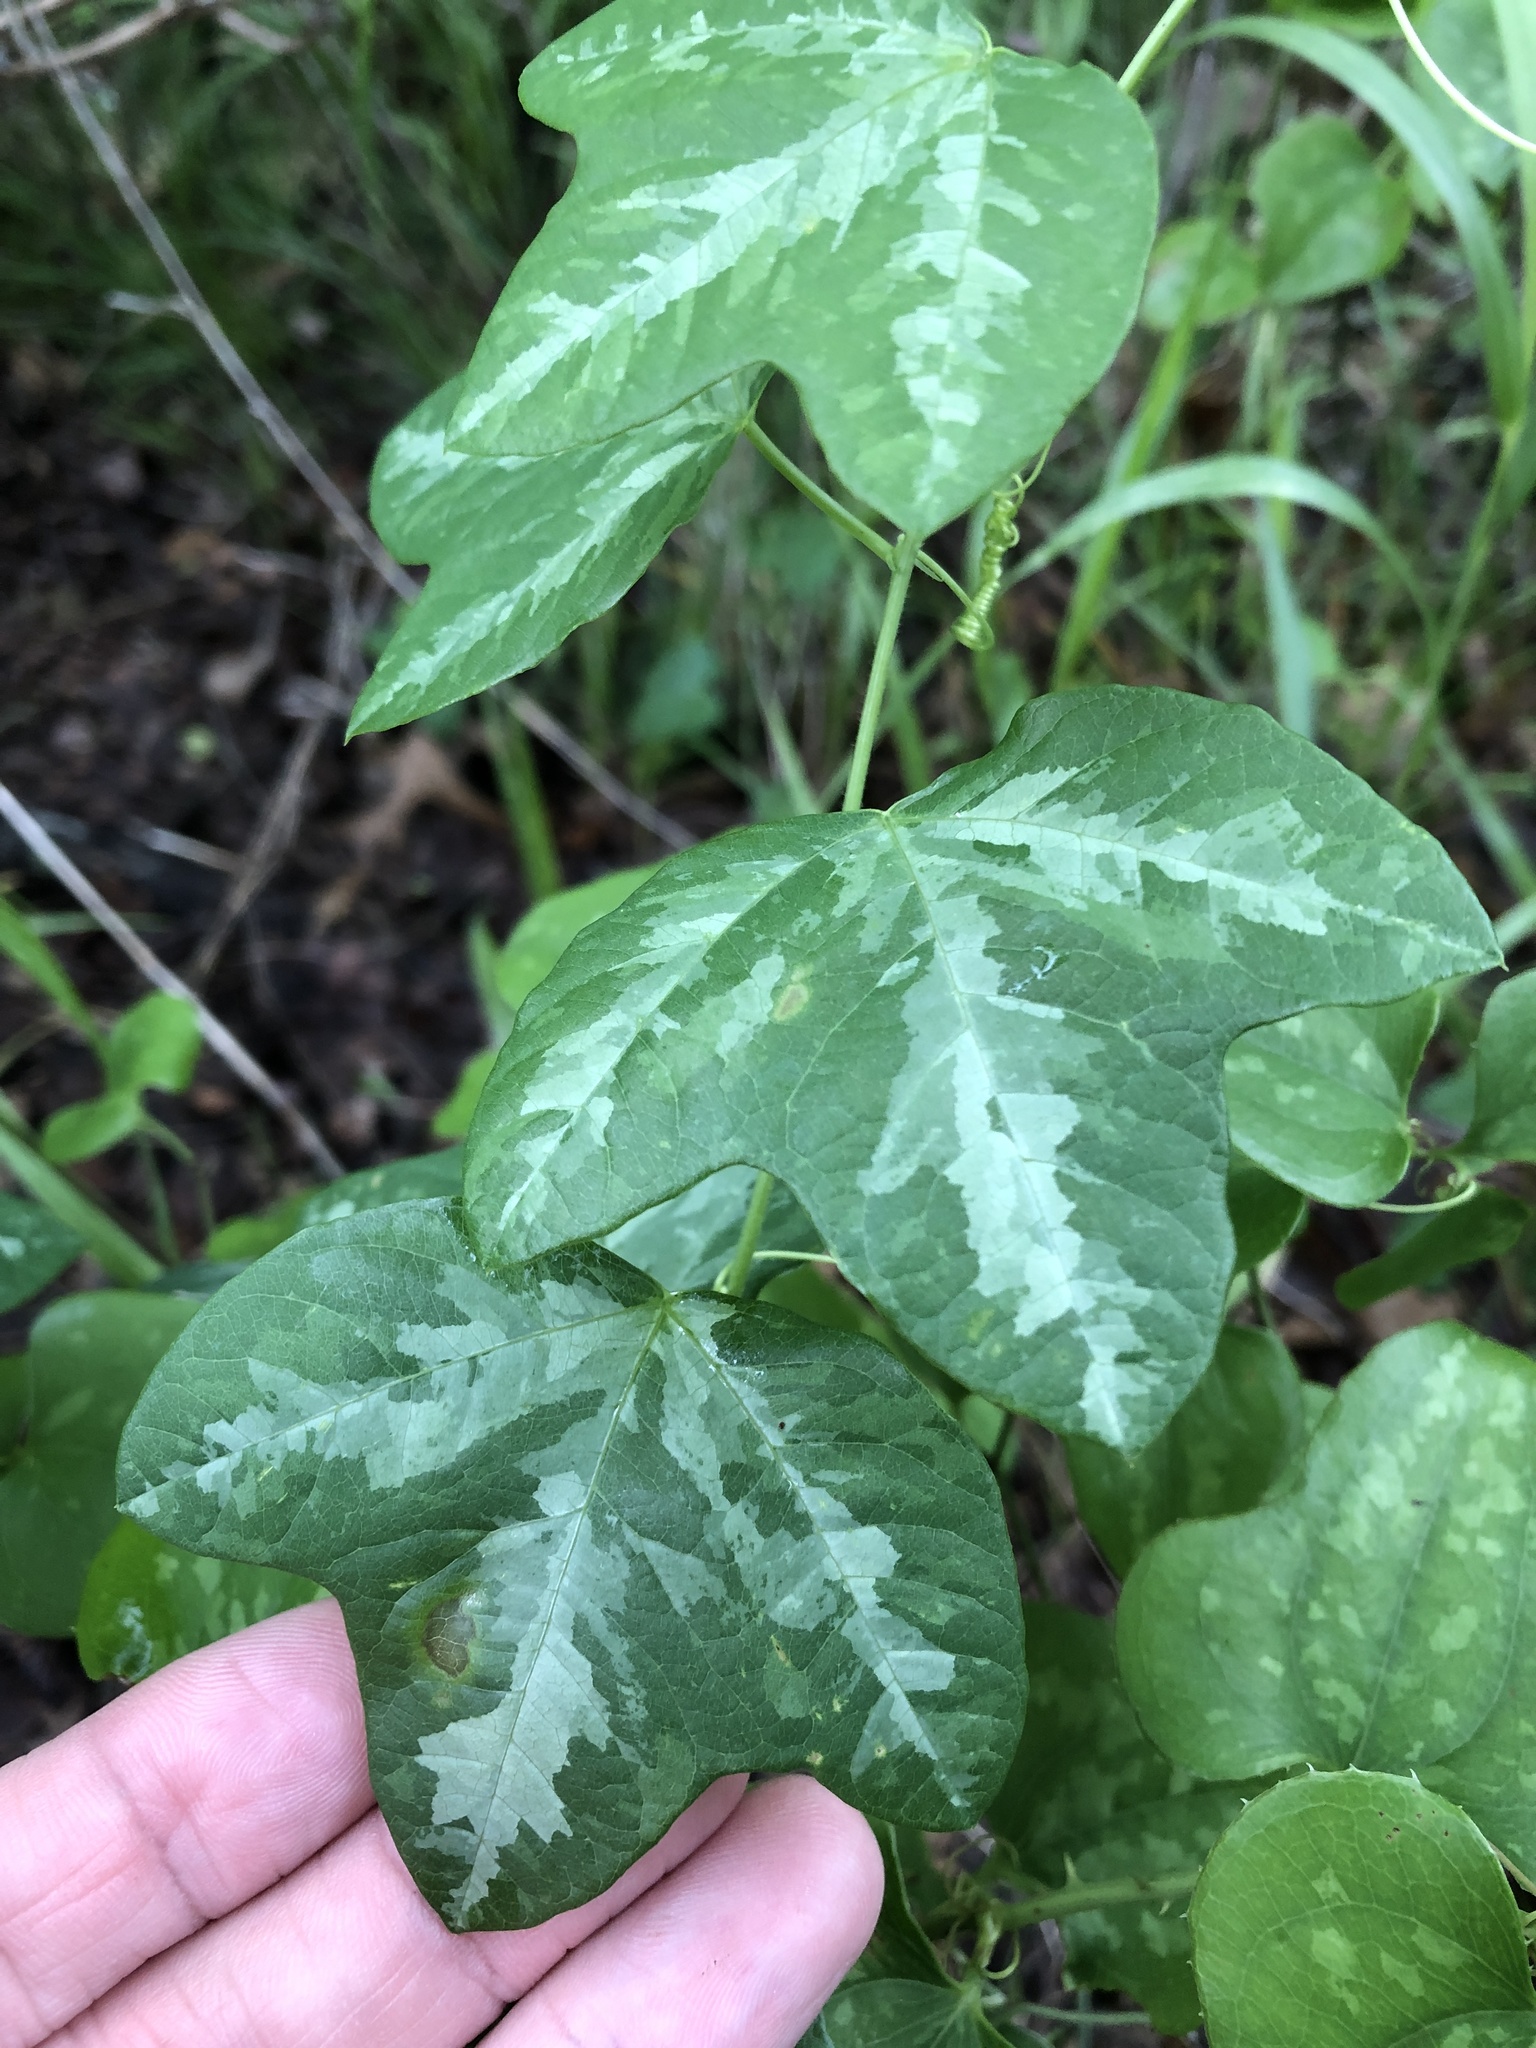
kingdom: Plantae
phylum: Tracheophyta
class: Magnoliopsida
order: Malpighiales
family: Passifloraceae
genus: Passiflora
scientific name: Passiflora lutea
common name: Yellow passionflower
